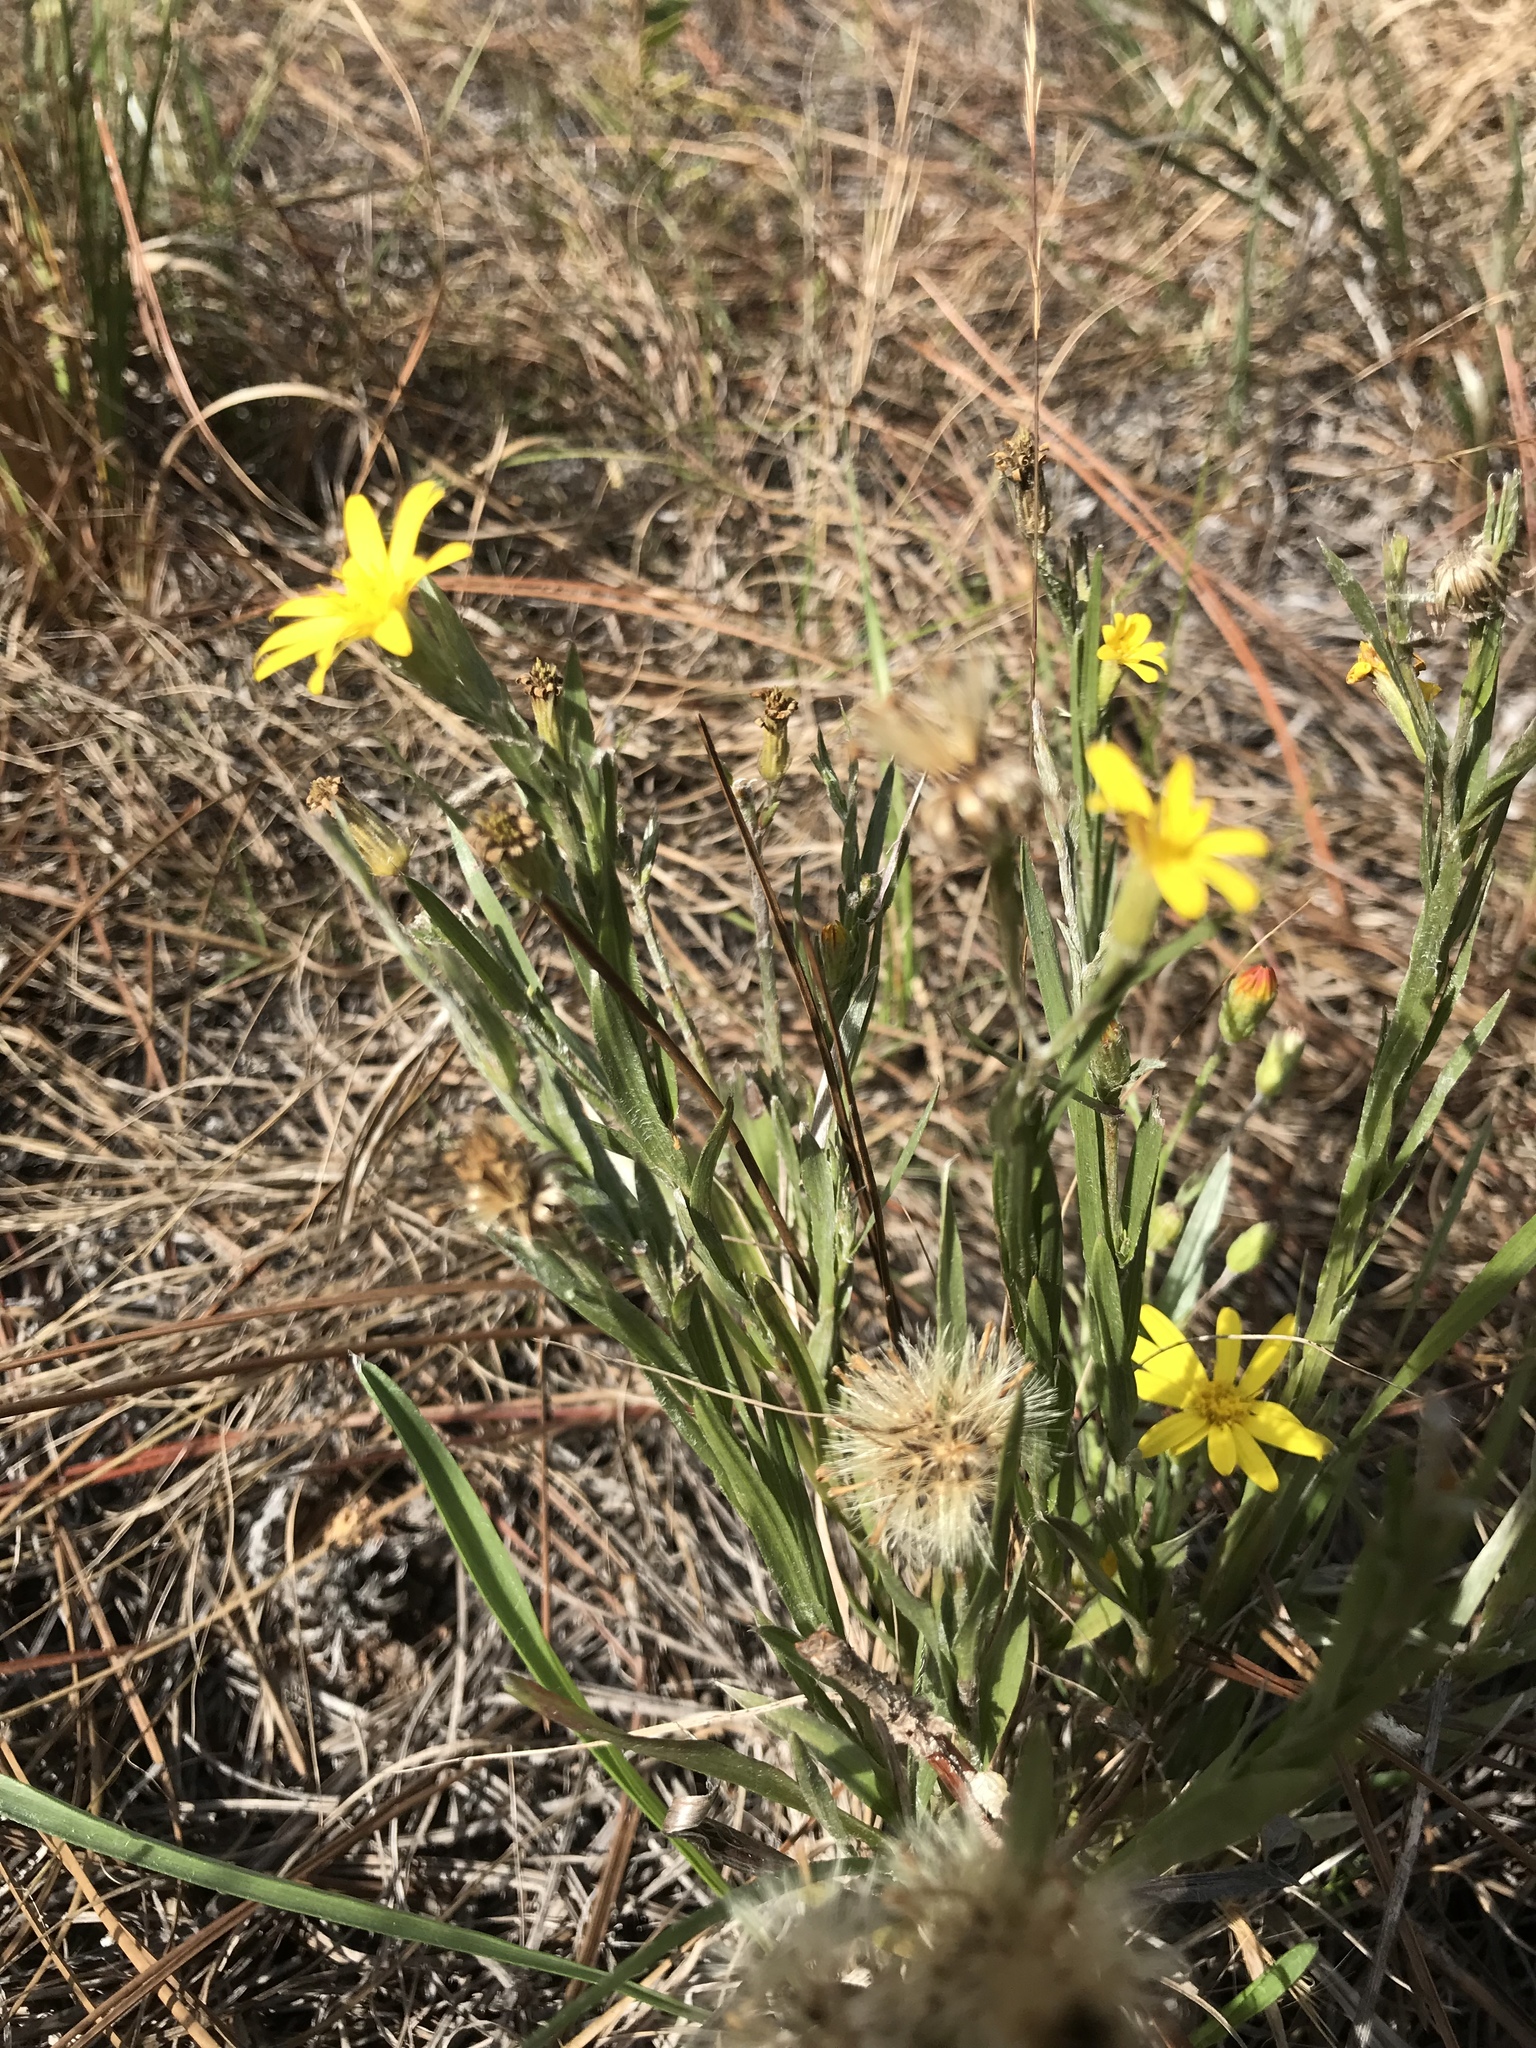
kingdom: Plantae
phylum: Tracheophyta
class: Magnoliopsida
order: Asterales
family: Asteraceae
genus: Pityopsis
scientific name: Pityopsis graminifolia
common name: Grass-leaf golden-aster
